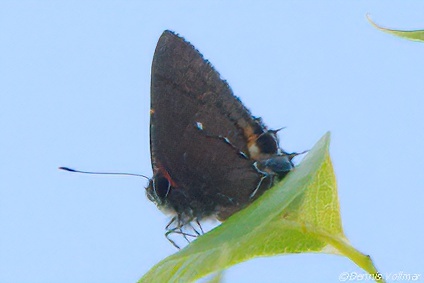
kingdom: Animalia
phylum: Arthropoda
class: Insecta
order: Lepidoptera
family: Lycaenidae
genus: Thecla
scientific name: Thecla angelia
